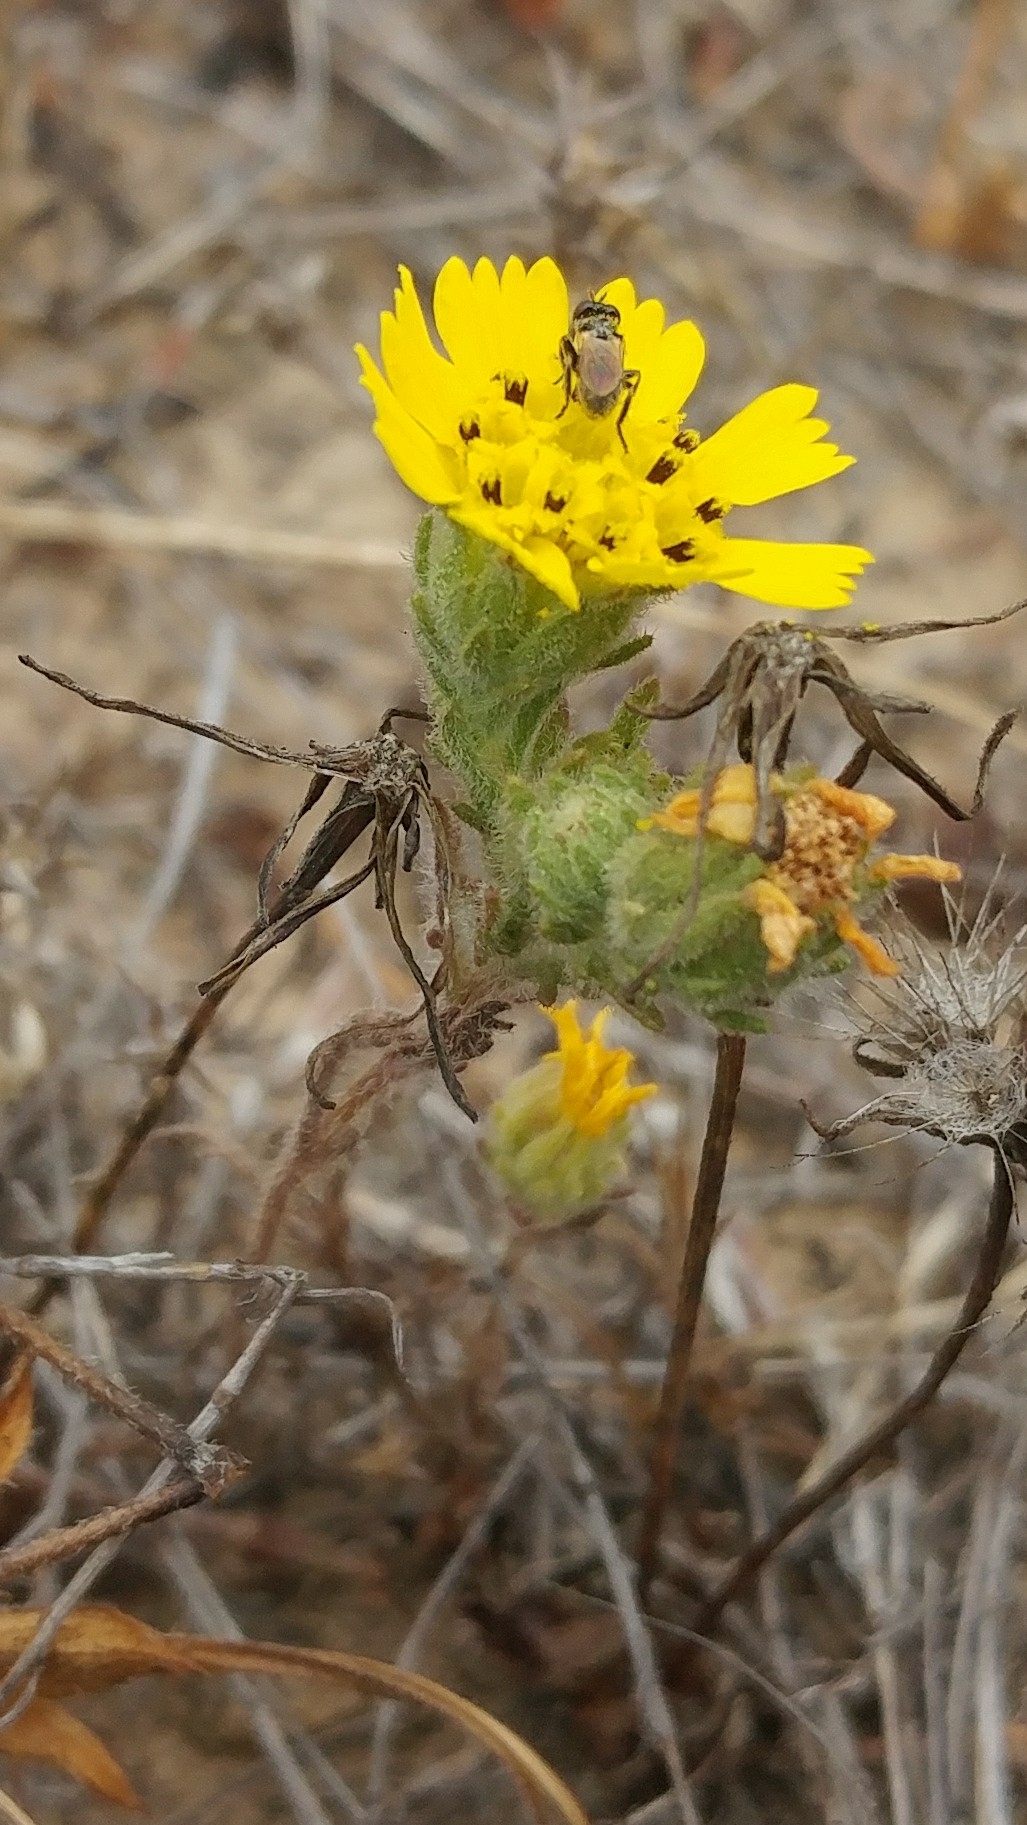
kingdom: Plantae
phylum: Tracheophyta
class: Magnoliopsida
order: Asterales
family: Asteraceae
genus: Deinandra
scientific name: Deinandra increscens
